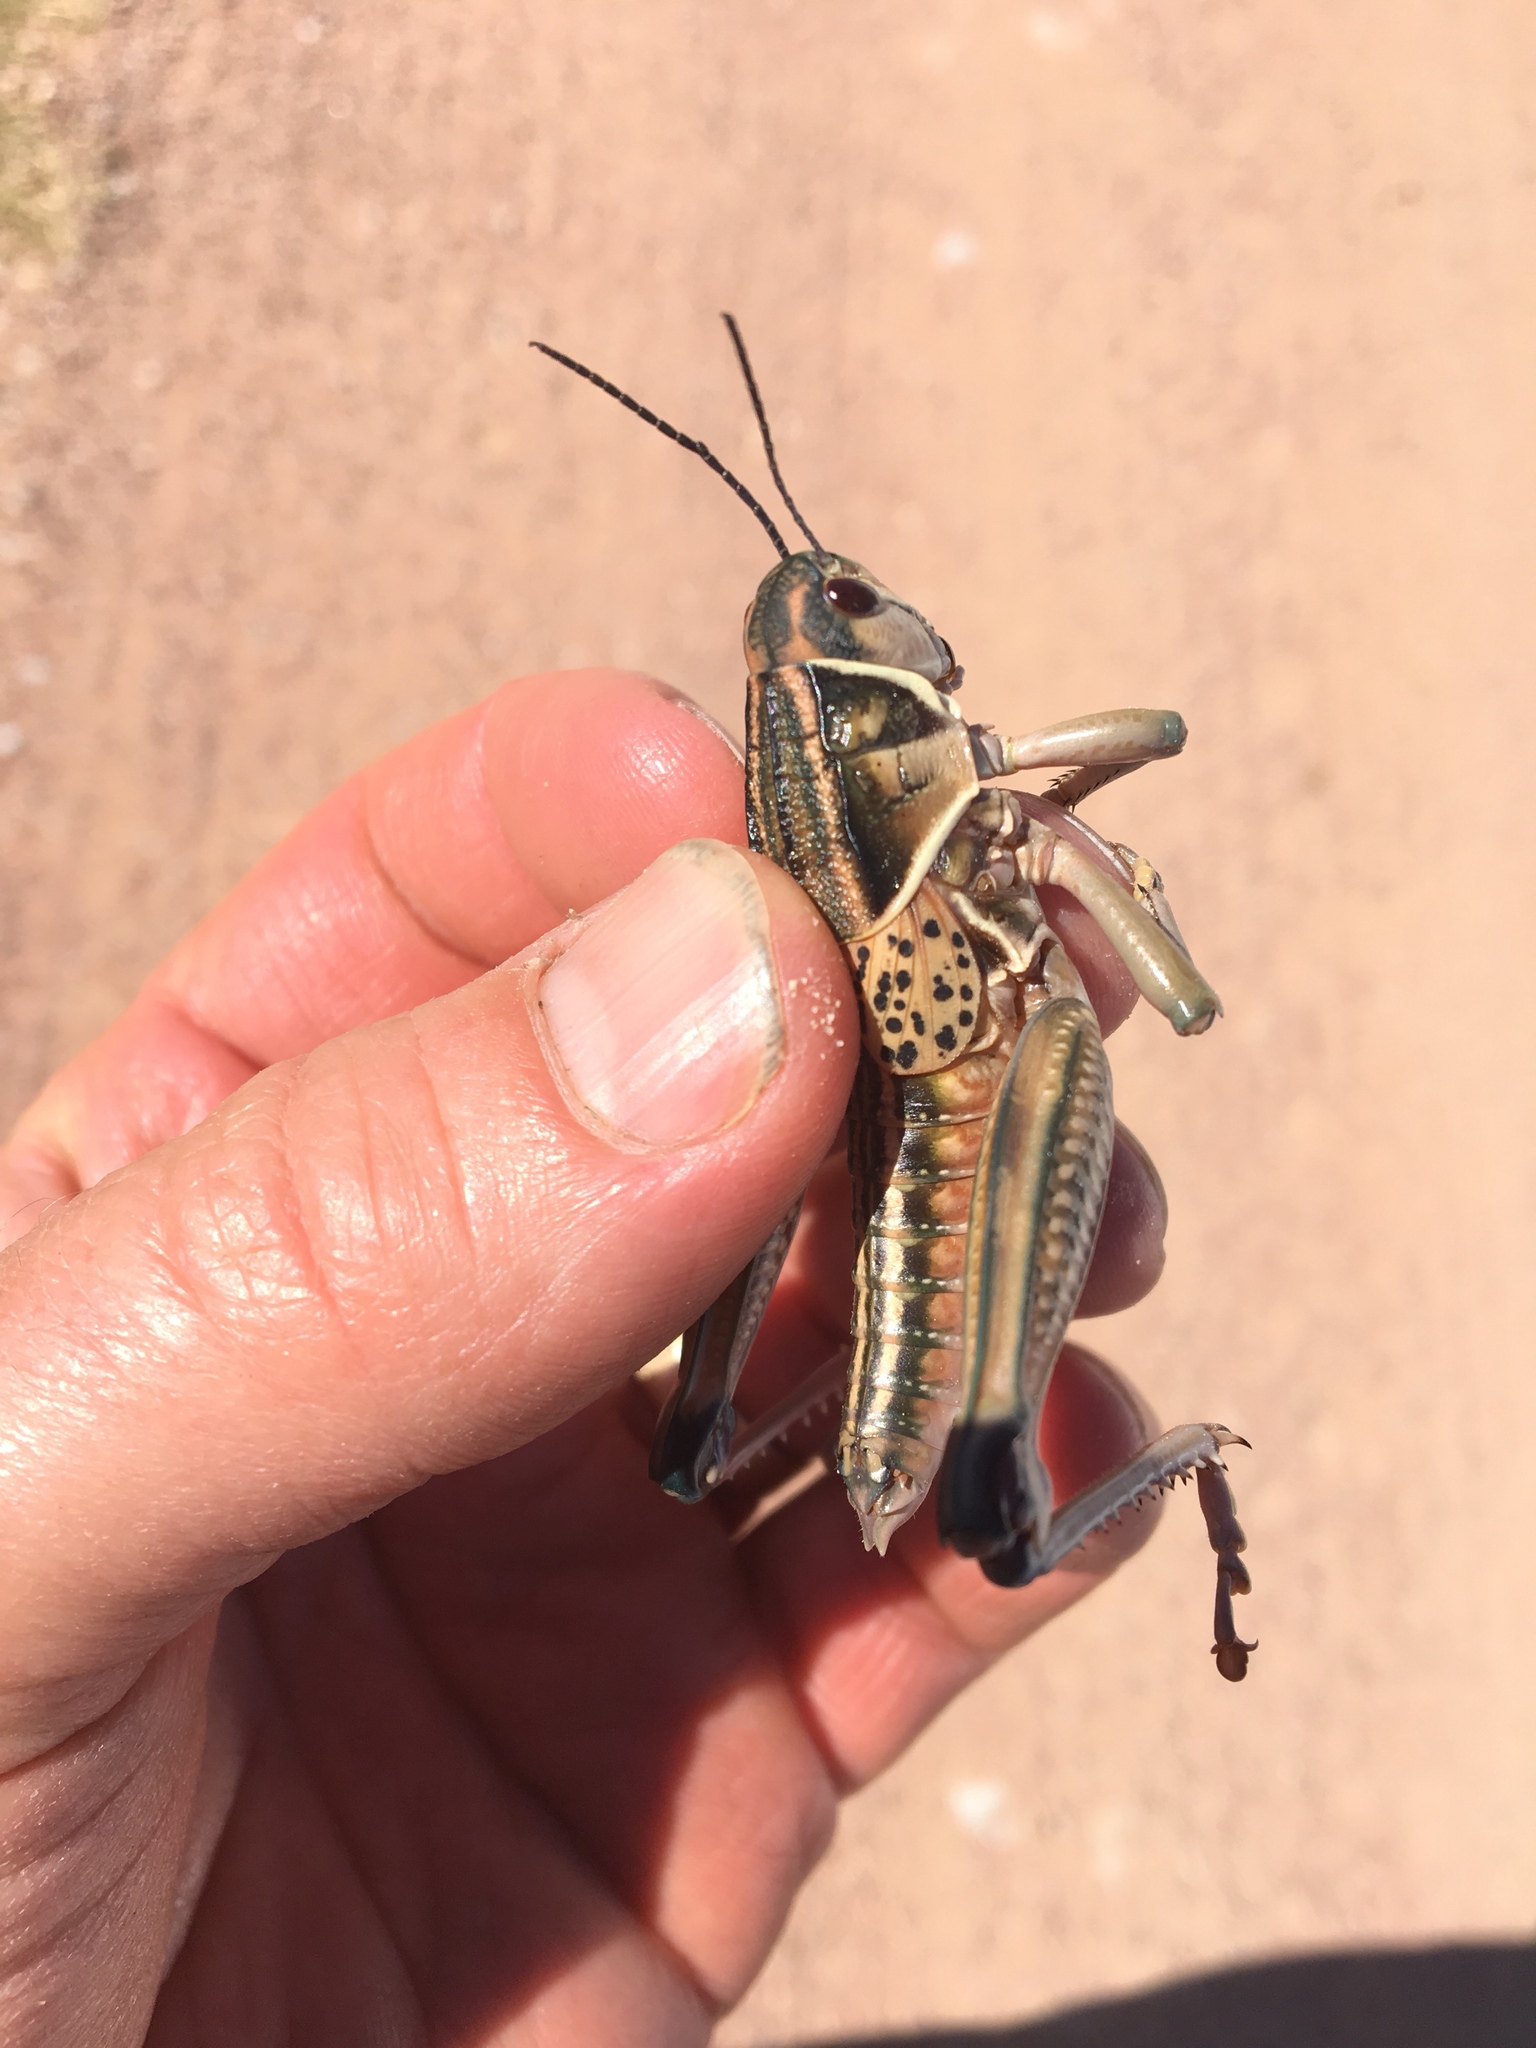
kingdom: Animalia
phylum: Arthropoda
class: Insecta
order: Orthoptera
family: Romaleidae
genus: Brachystola
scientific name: Brachystola magna
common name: Plains lubber grasshopper
